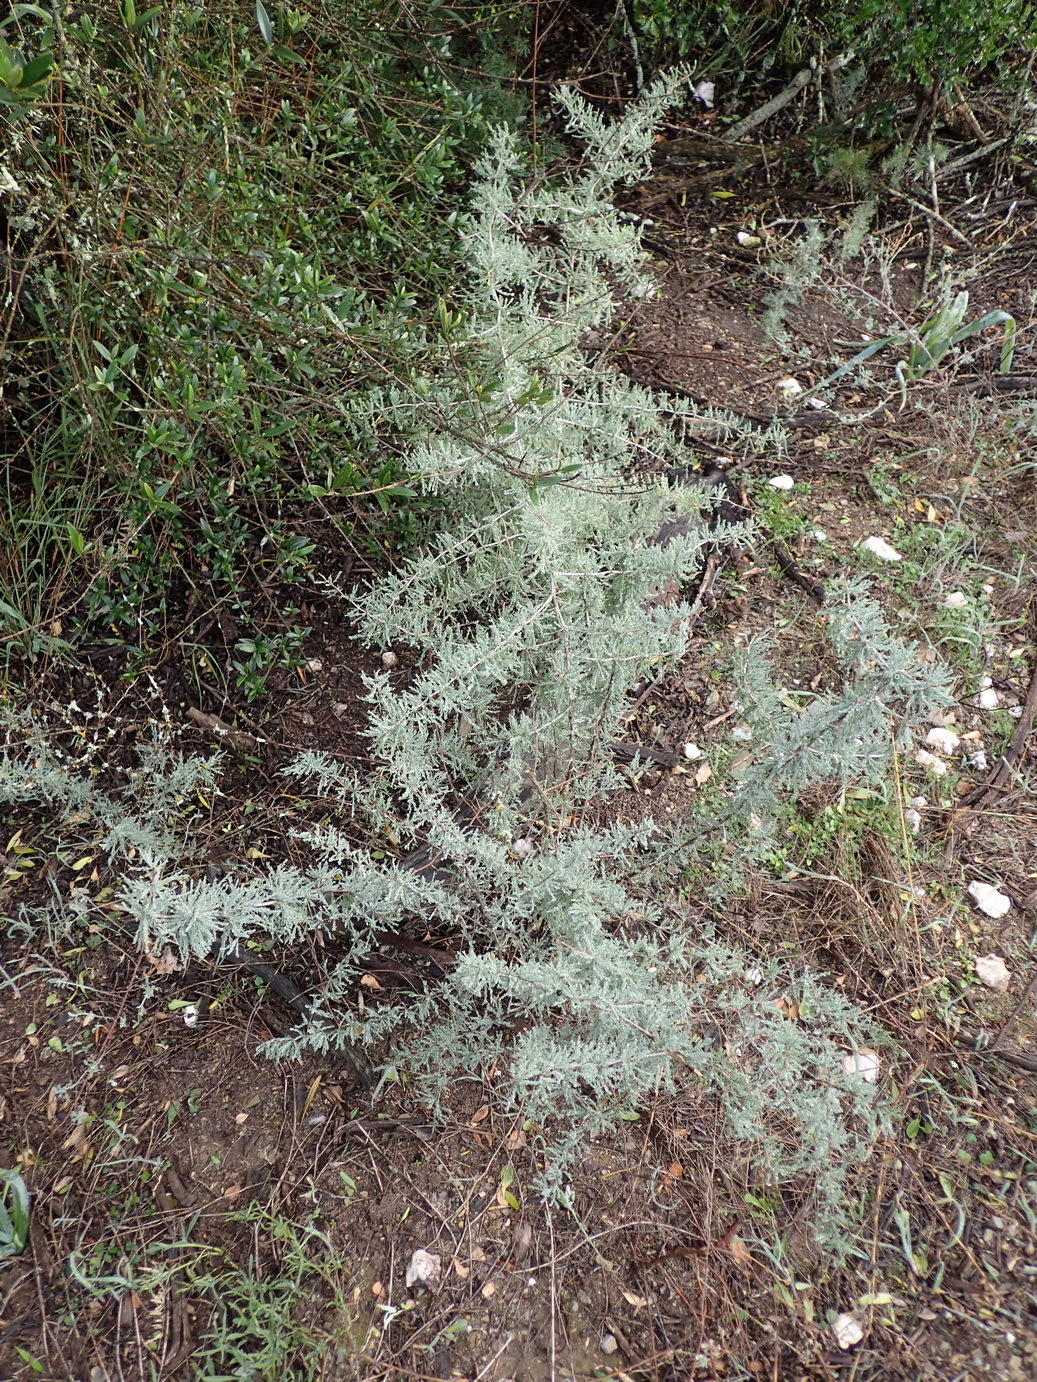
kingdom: Plantae
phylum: Tracheophyta
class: Liliopsida
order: Asparagales
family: Asparagaceae
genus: Asparagus
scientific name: Asparagus capensis
